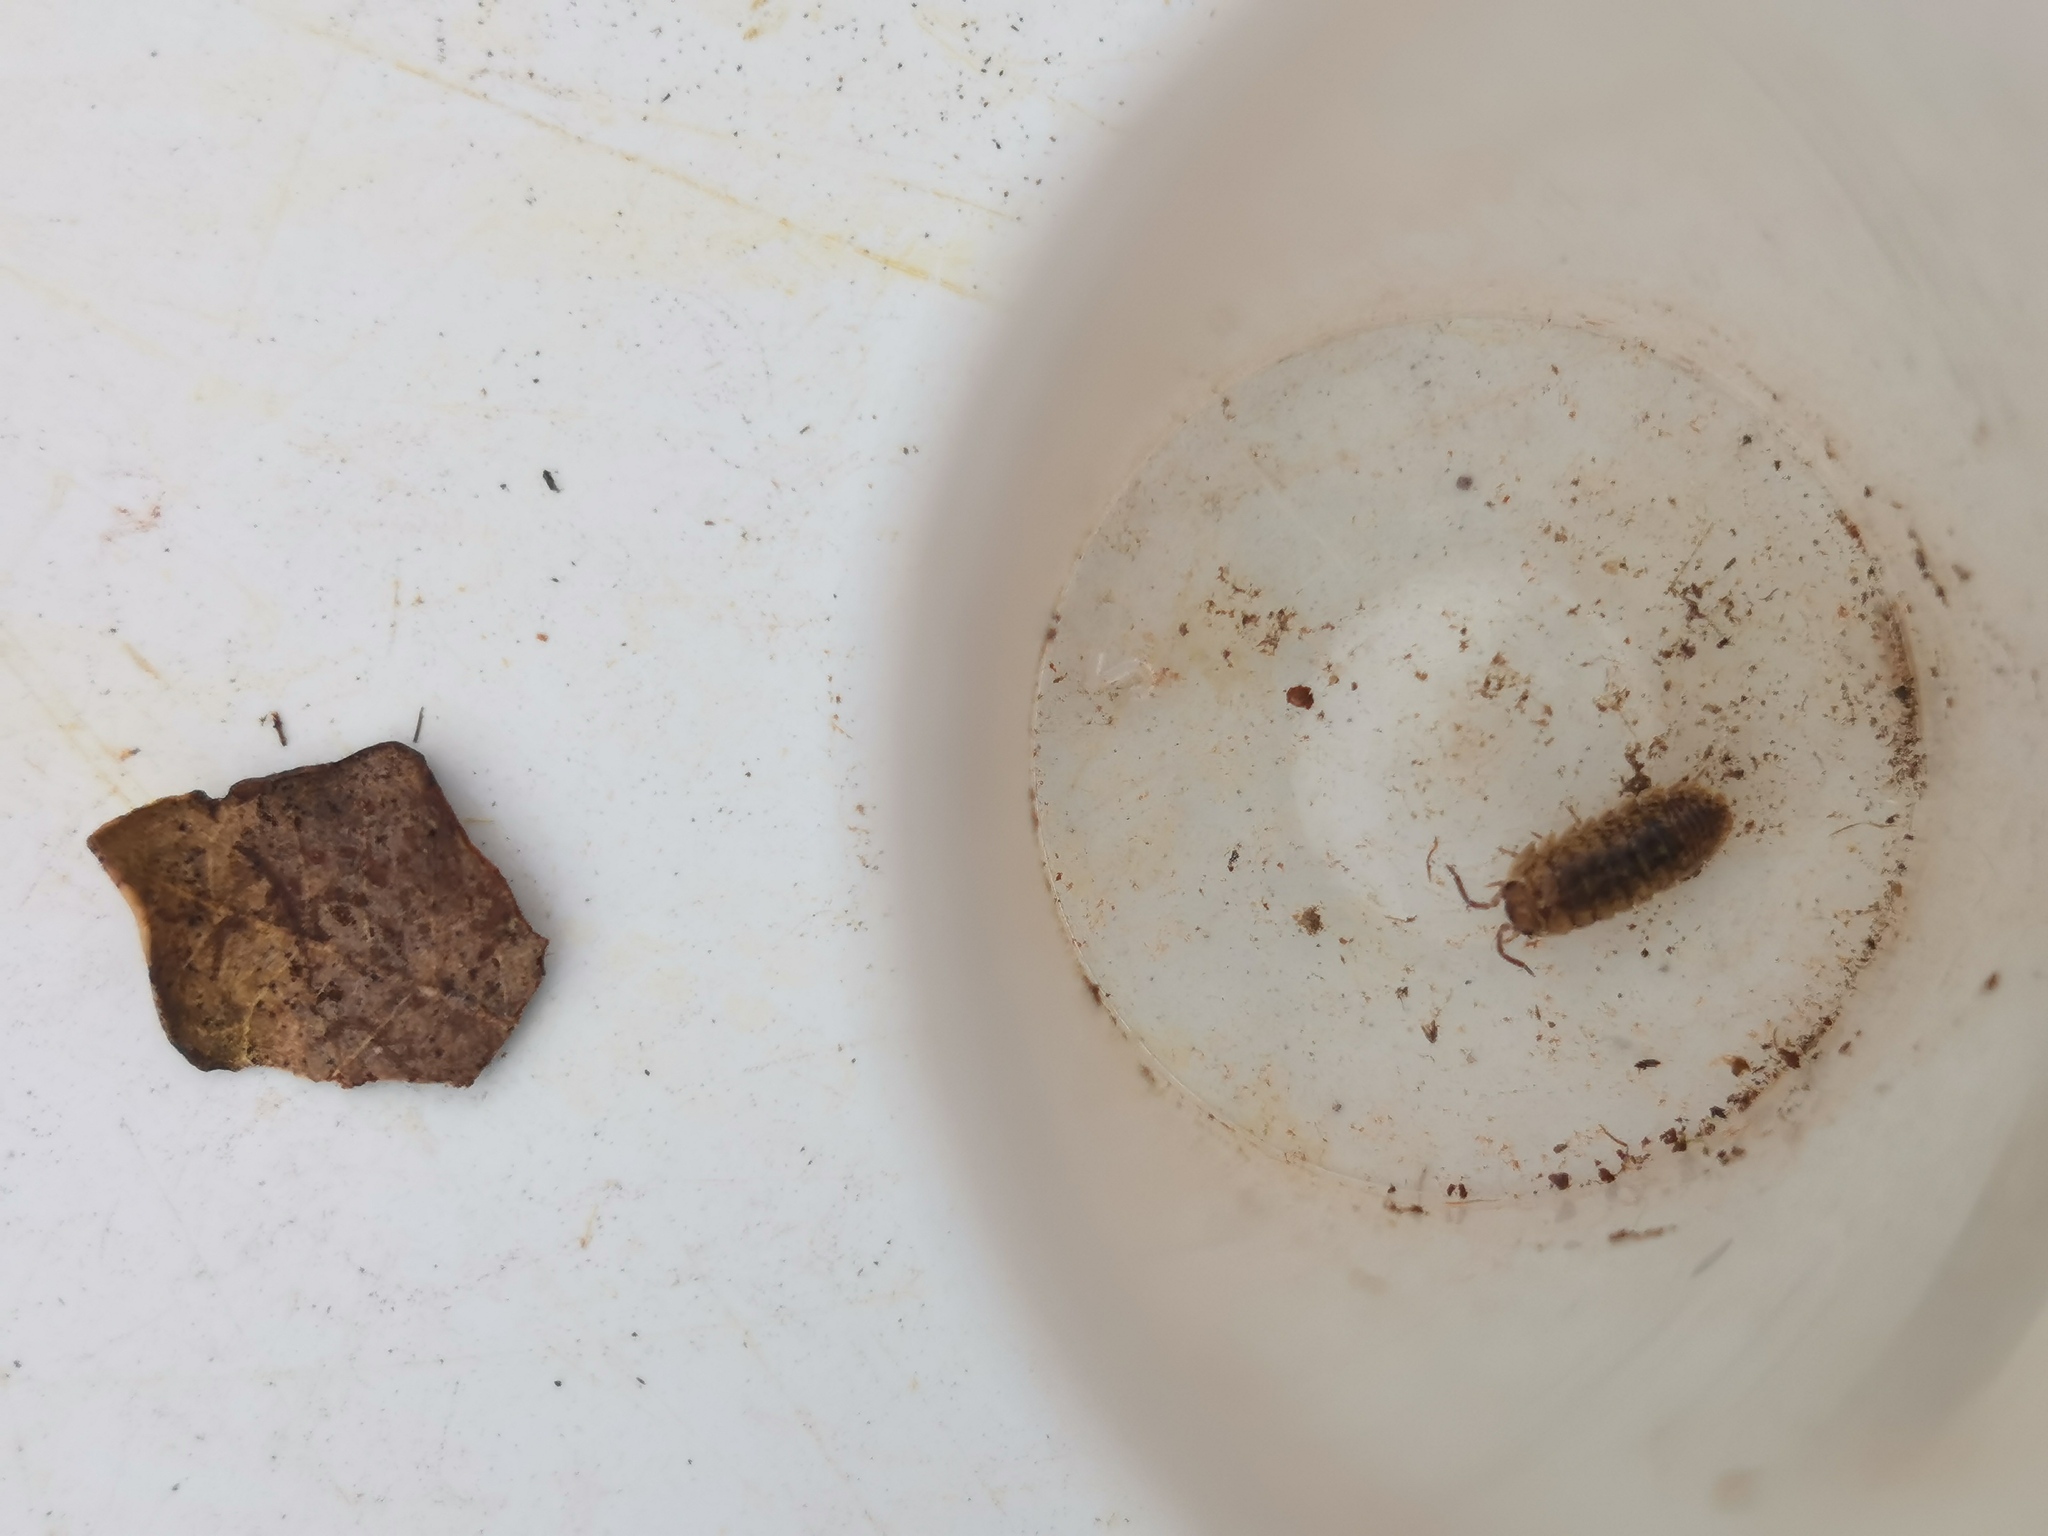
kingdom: Animalia
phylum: Arthropoda
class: Malacostraca
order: Isopoda
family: Armadillidiidae
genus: Armadillidium
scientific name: Armadillidium arcangelii
